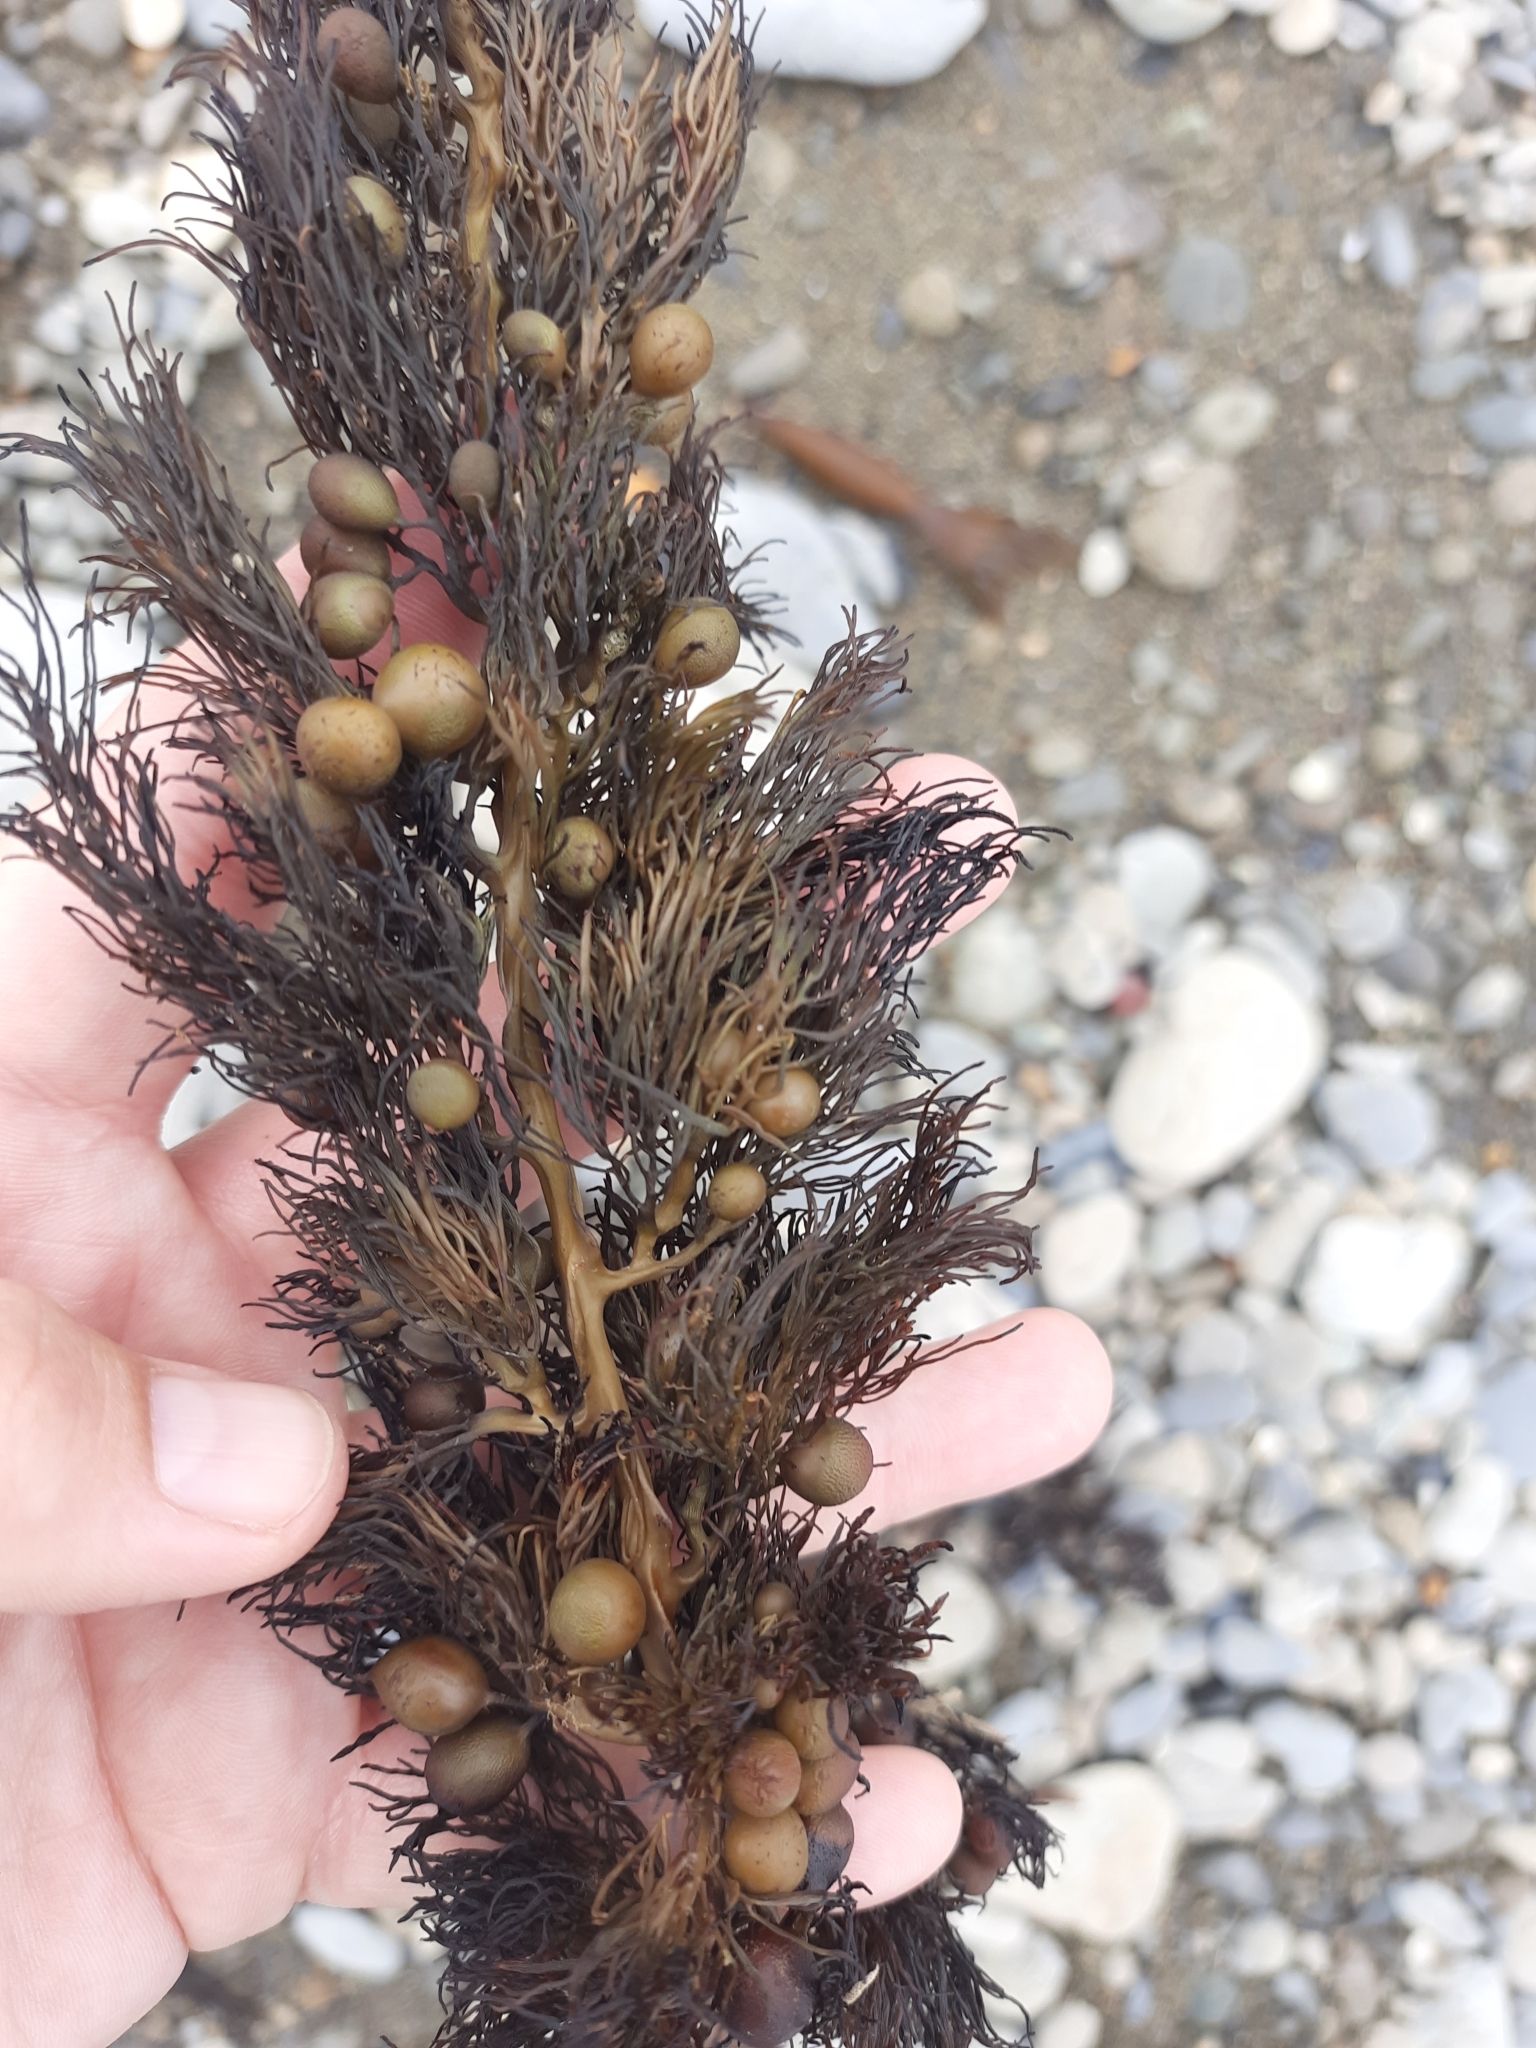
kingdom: Chromista
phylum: Ochrophyta
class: Phaeophyceae
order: Fucales
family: Sargassaceae
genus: Cystophora
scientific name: Cystophora retroflexa
